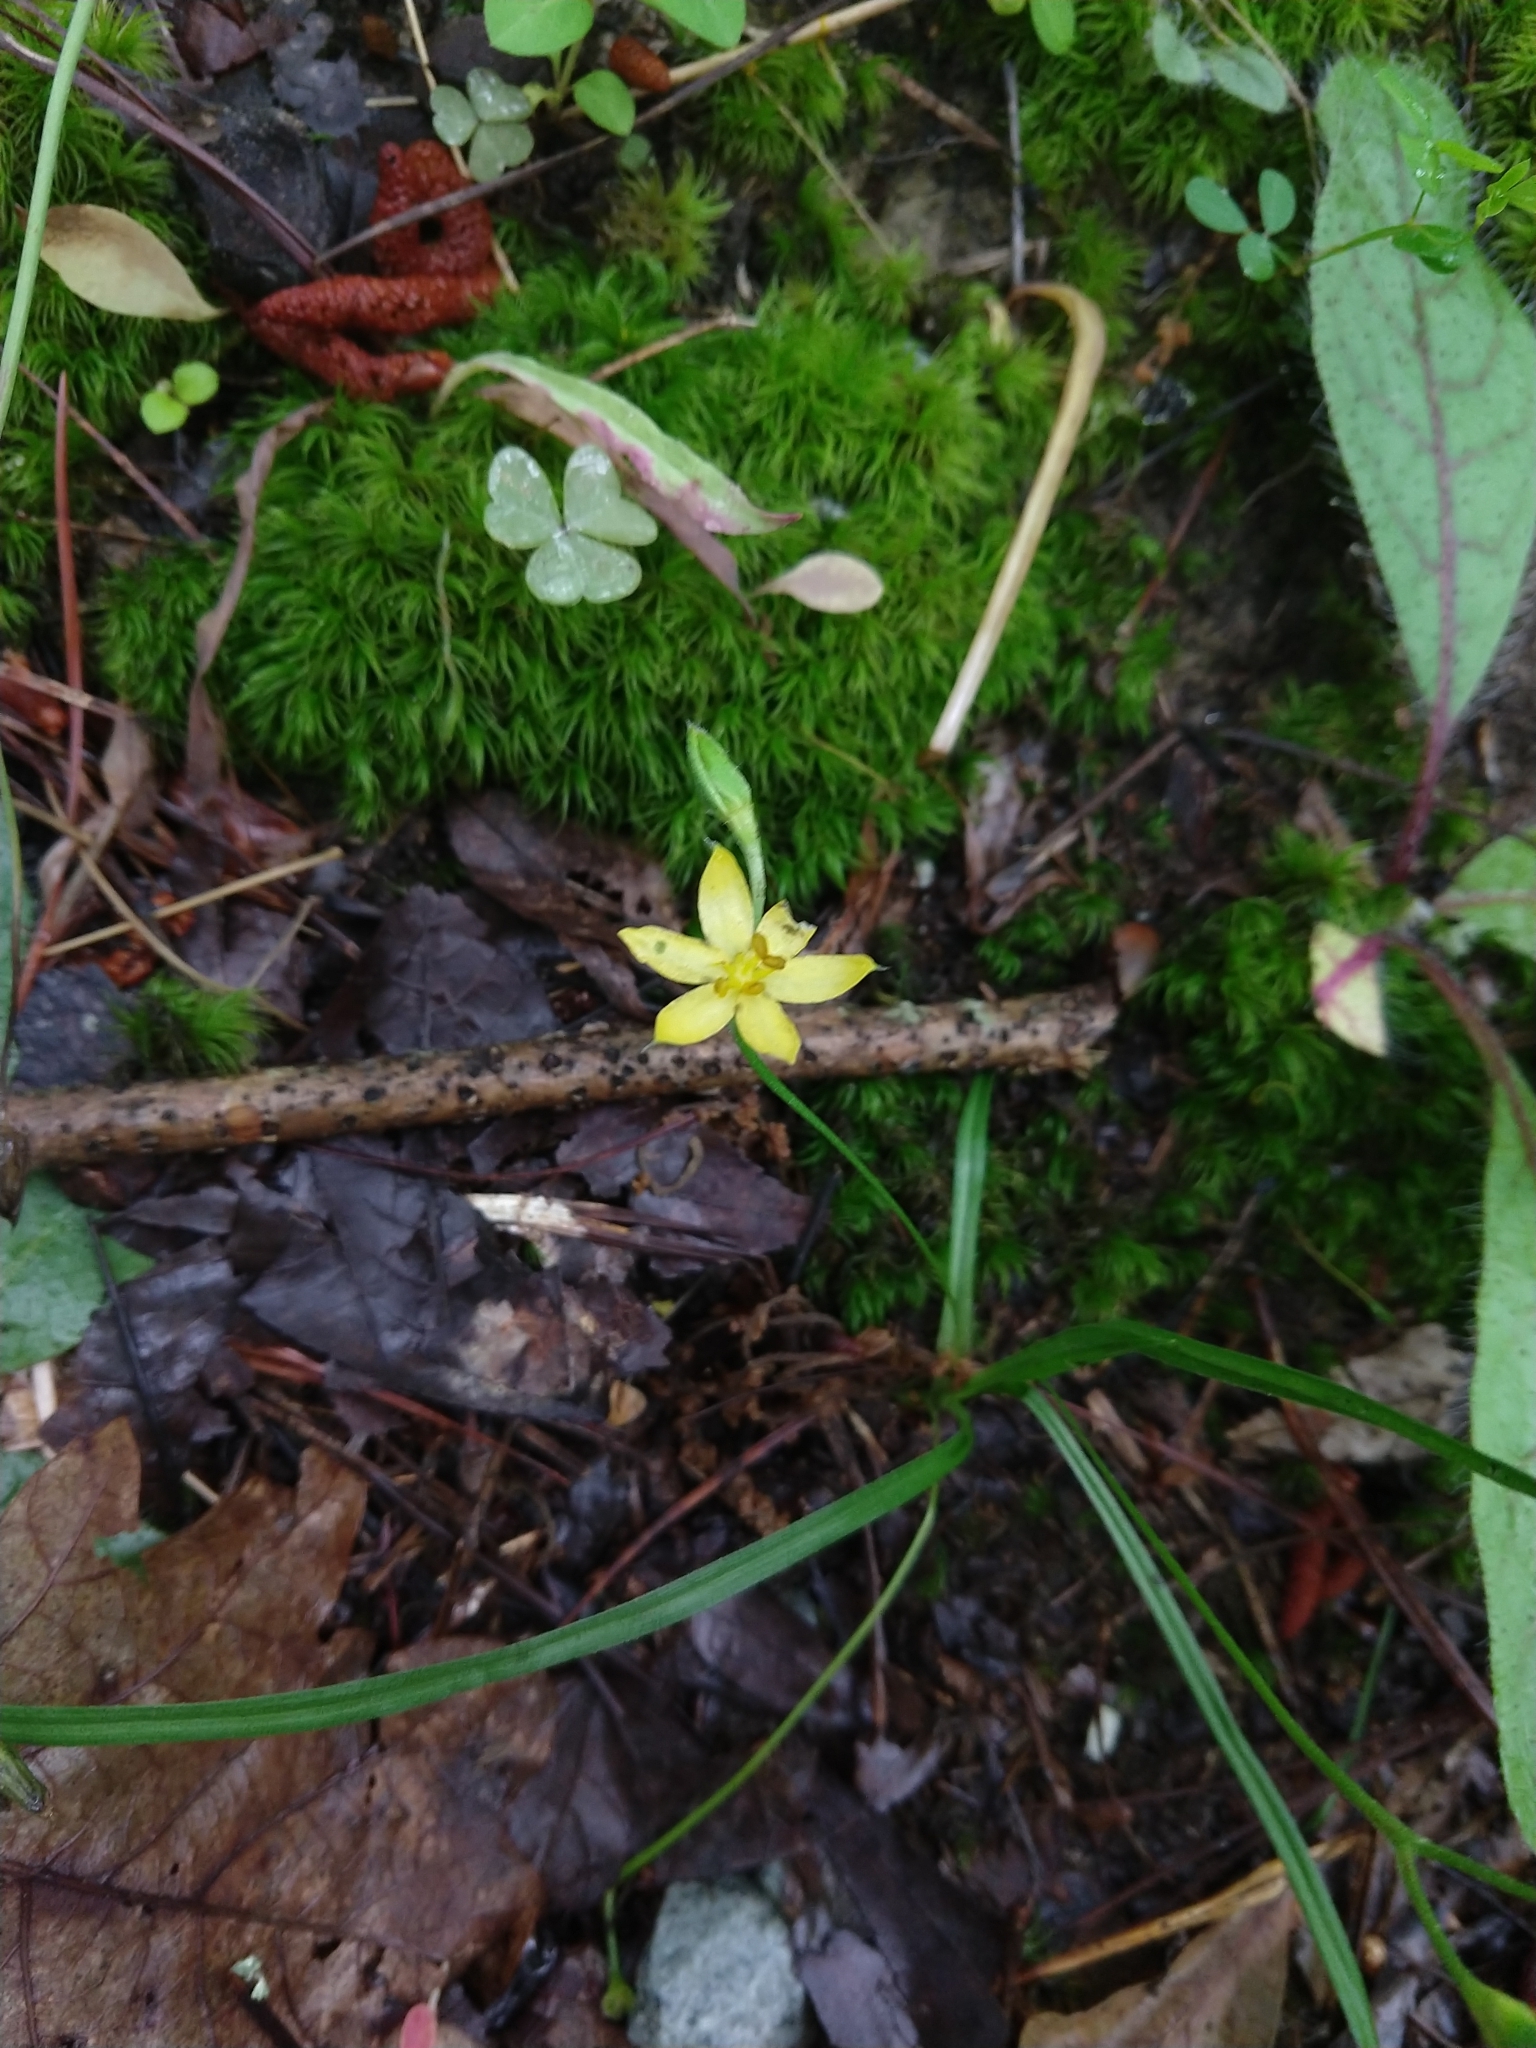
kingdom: Plantae
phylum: Tracheophyta
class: Liliopsida
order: Asparagales
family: Hypoxidaceae
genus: Hypoxis
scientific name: Hypoxis hirsuta
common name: Common goldstar
